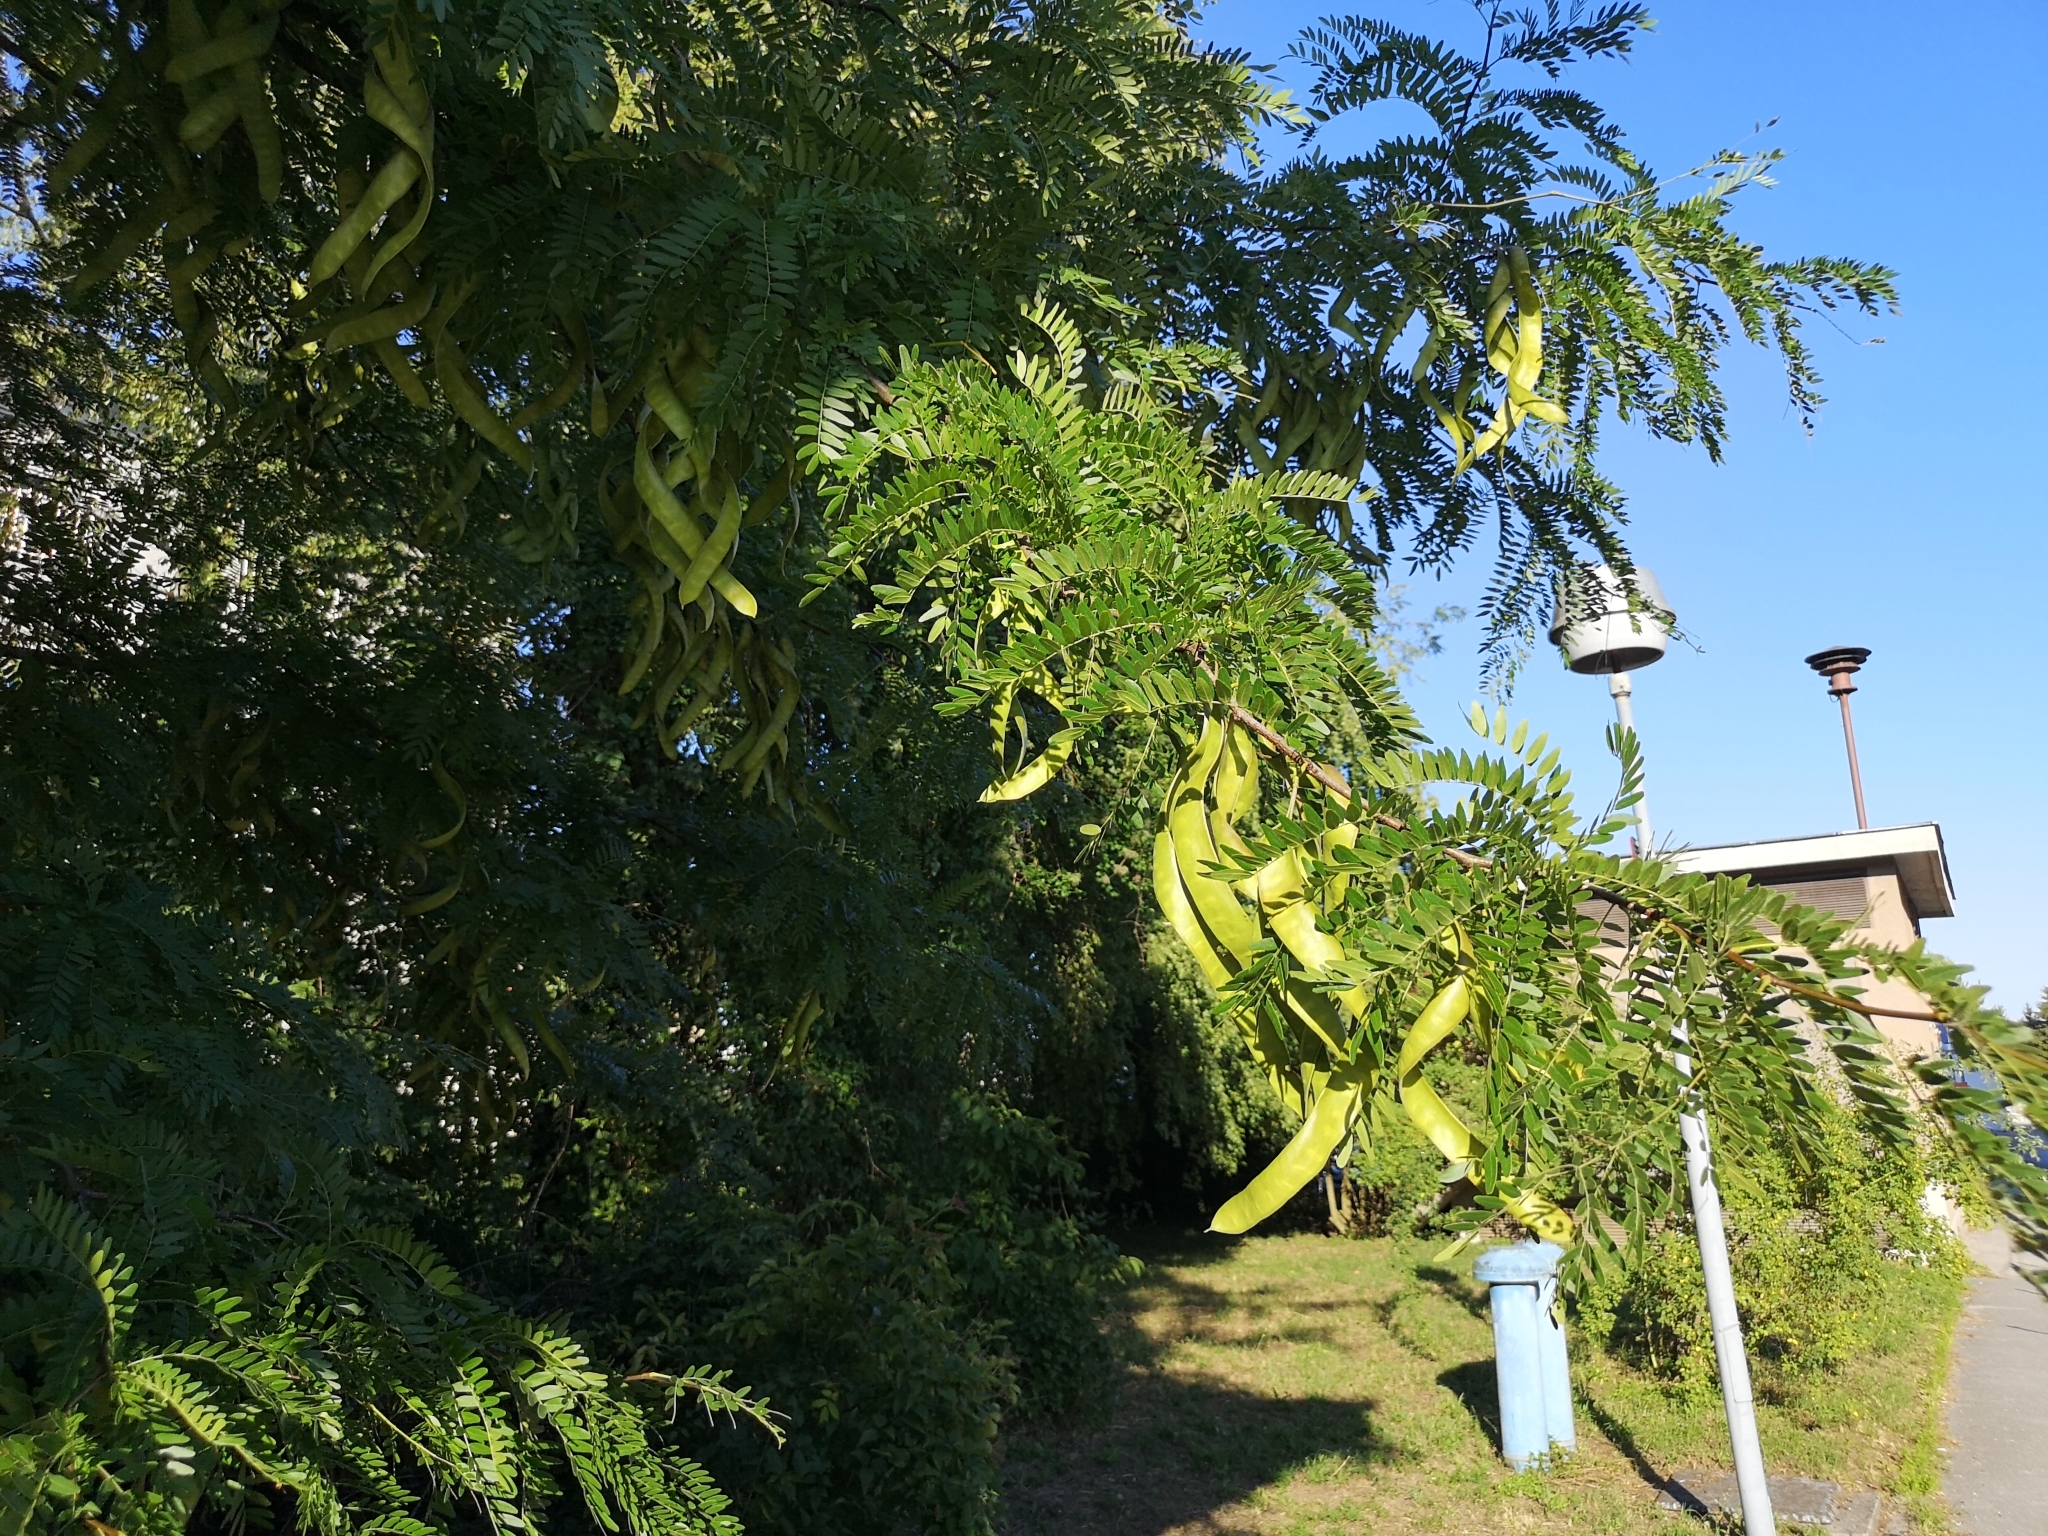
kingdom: Plantae
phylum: Tracheophyta
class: Magnoliopsida
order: Fabales
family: Fabaceae
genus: Gleditsia
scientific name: Gleditsia triacanthos
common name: Common honeylocust
